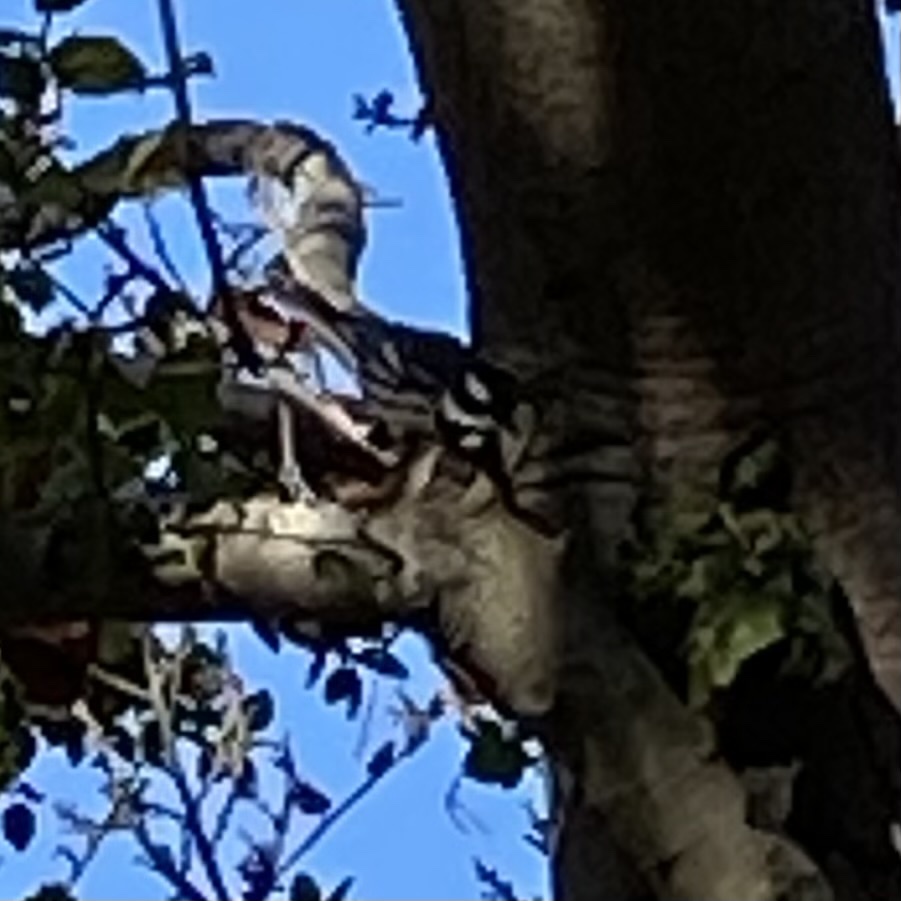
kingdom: Animalia
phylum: Chordata
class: Aves
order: Passeriformes
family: Parulidae
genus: Setophaga
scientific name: Setophaga nigrescens
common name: Black-throated gray warbler
